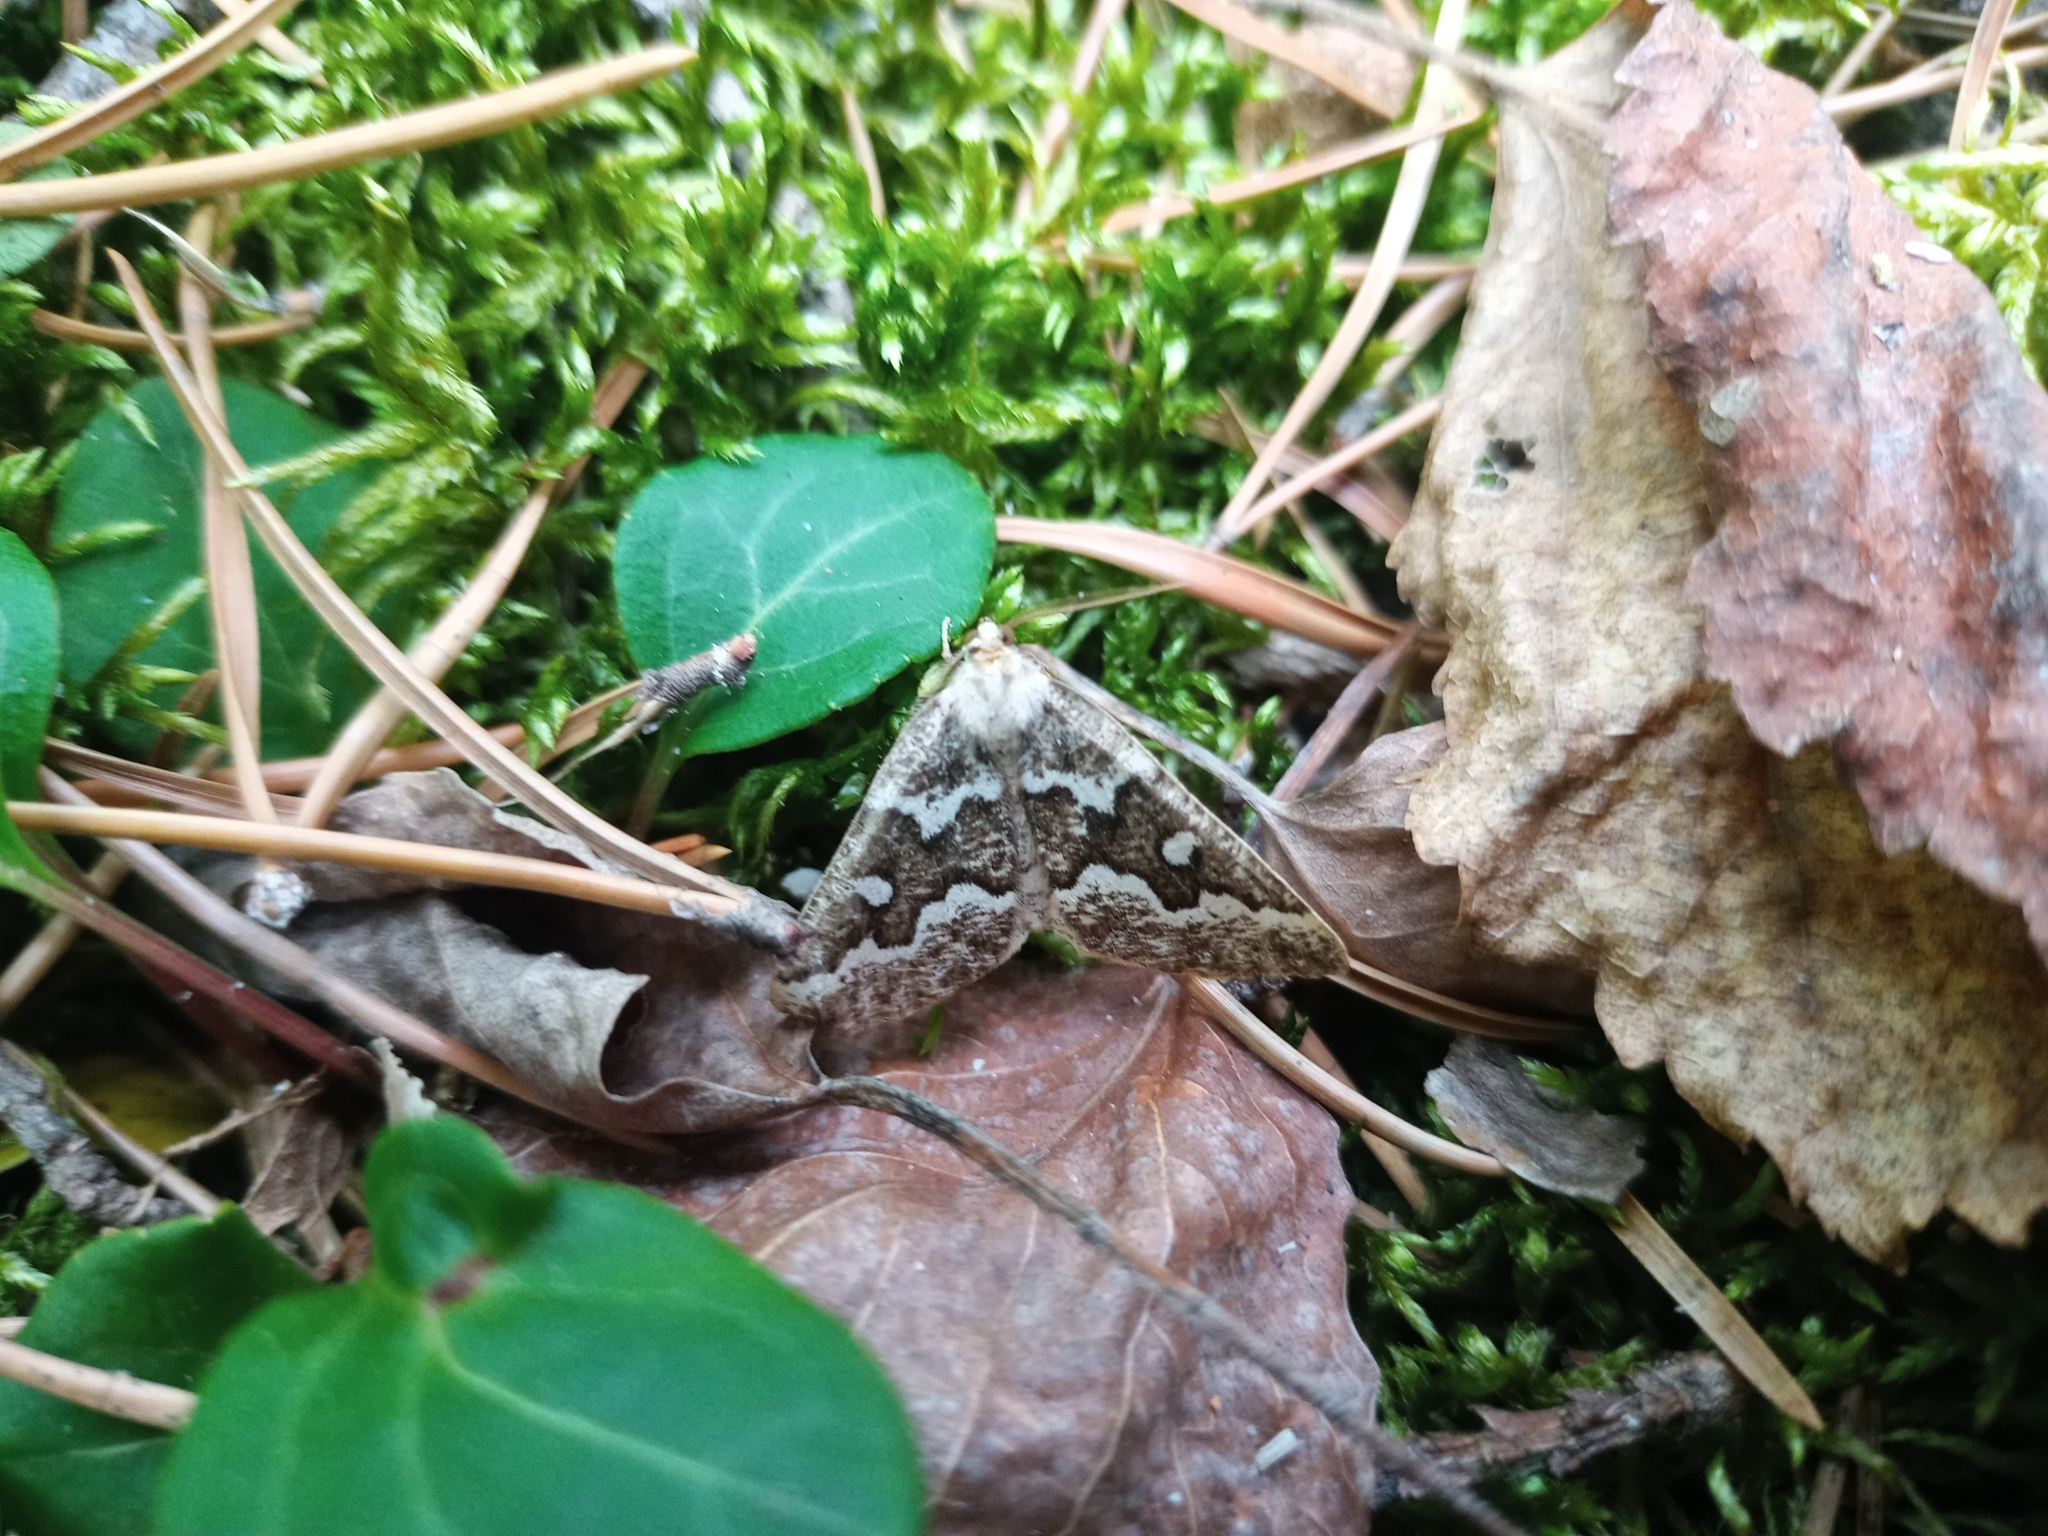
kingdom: Animalia
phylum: Arthropoda
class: Insecta
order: Lepidoptera
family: Geometridae
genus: Caripeta
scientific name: Caripeta divisata
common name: Gray spruce looper
